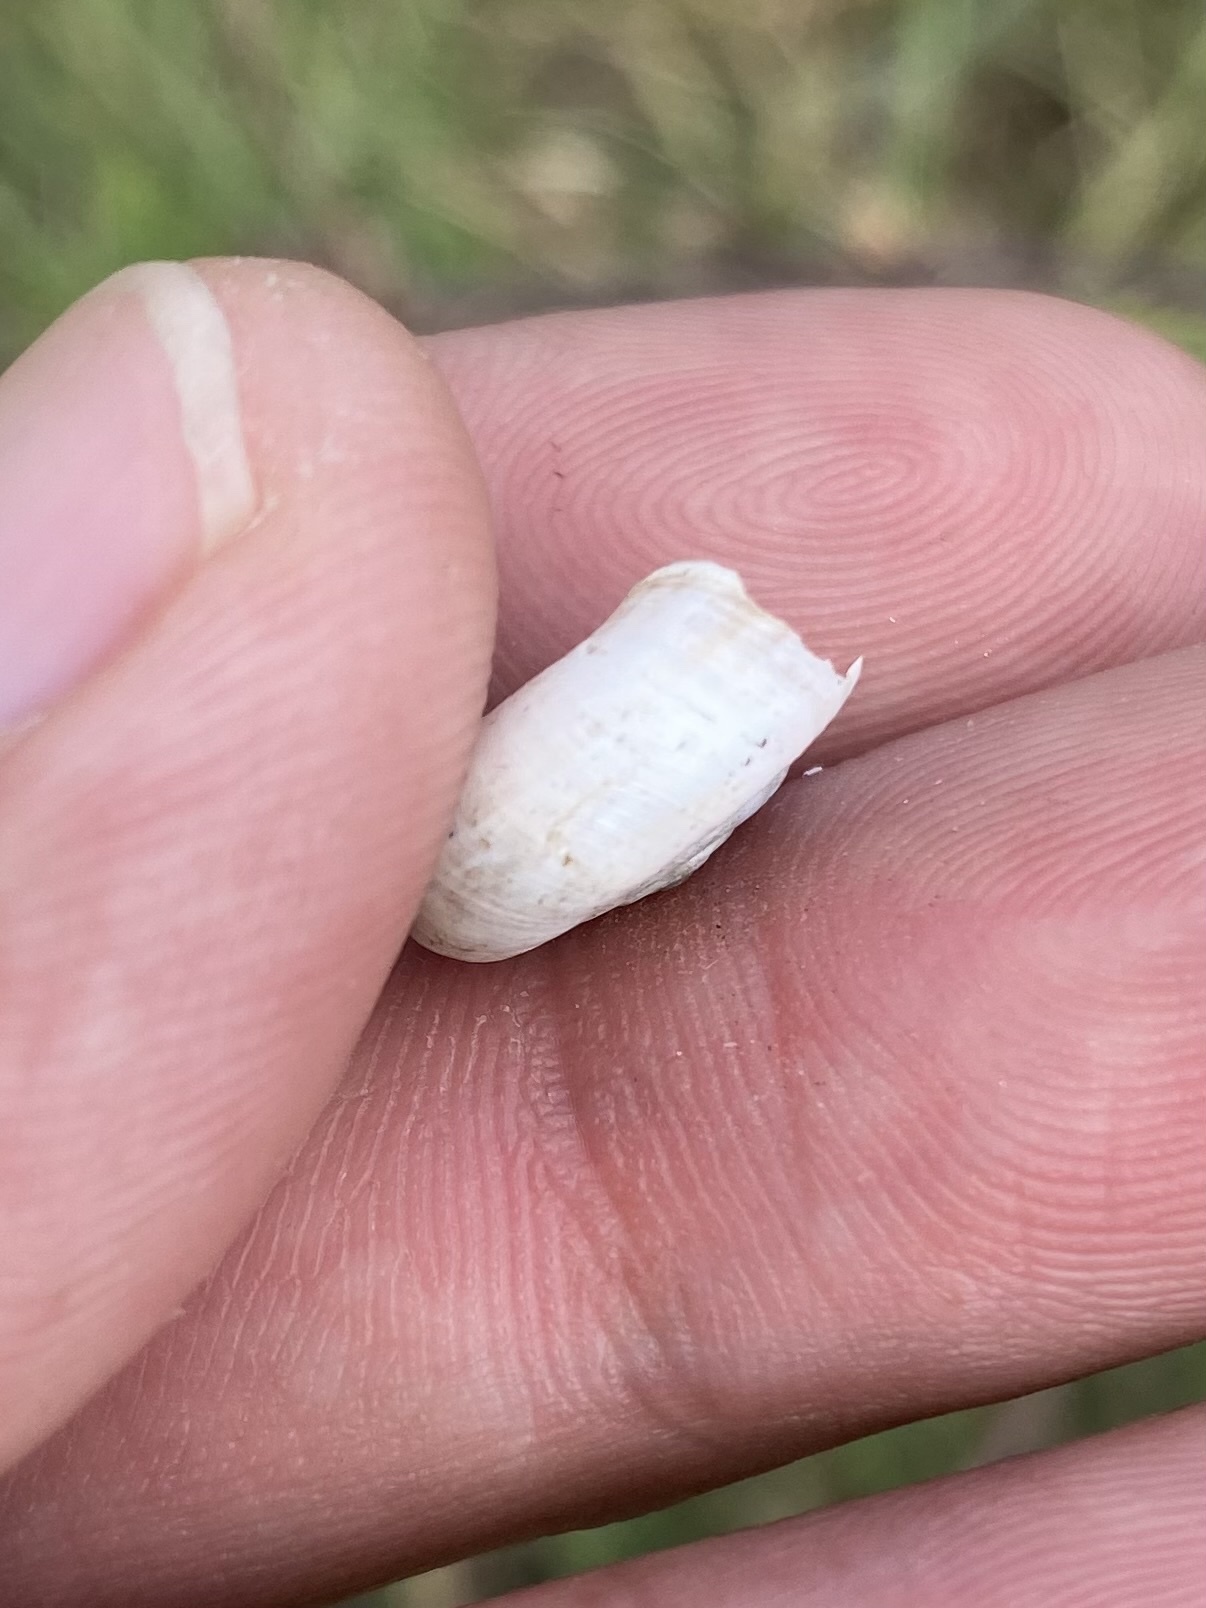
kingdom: Animalia
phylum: Mollusca
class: Gastropoda
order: Stylommatophora
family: Geomitridae
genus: Xeropicta
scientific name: Xeropicta derbentina
